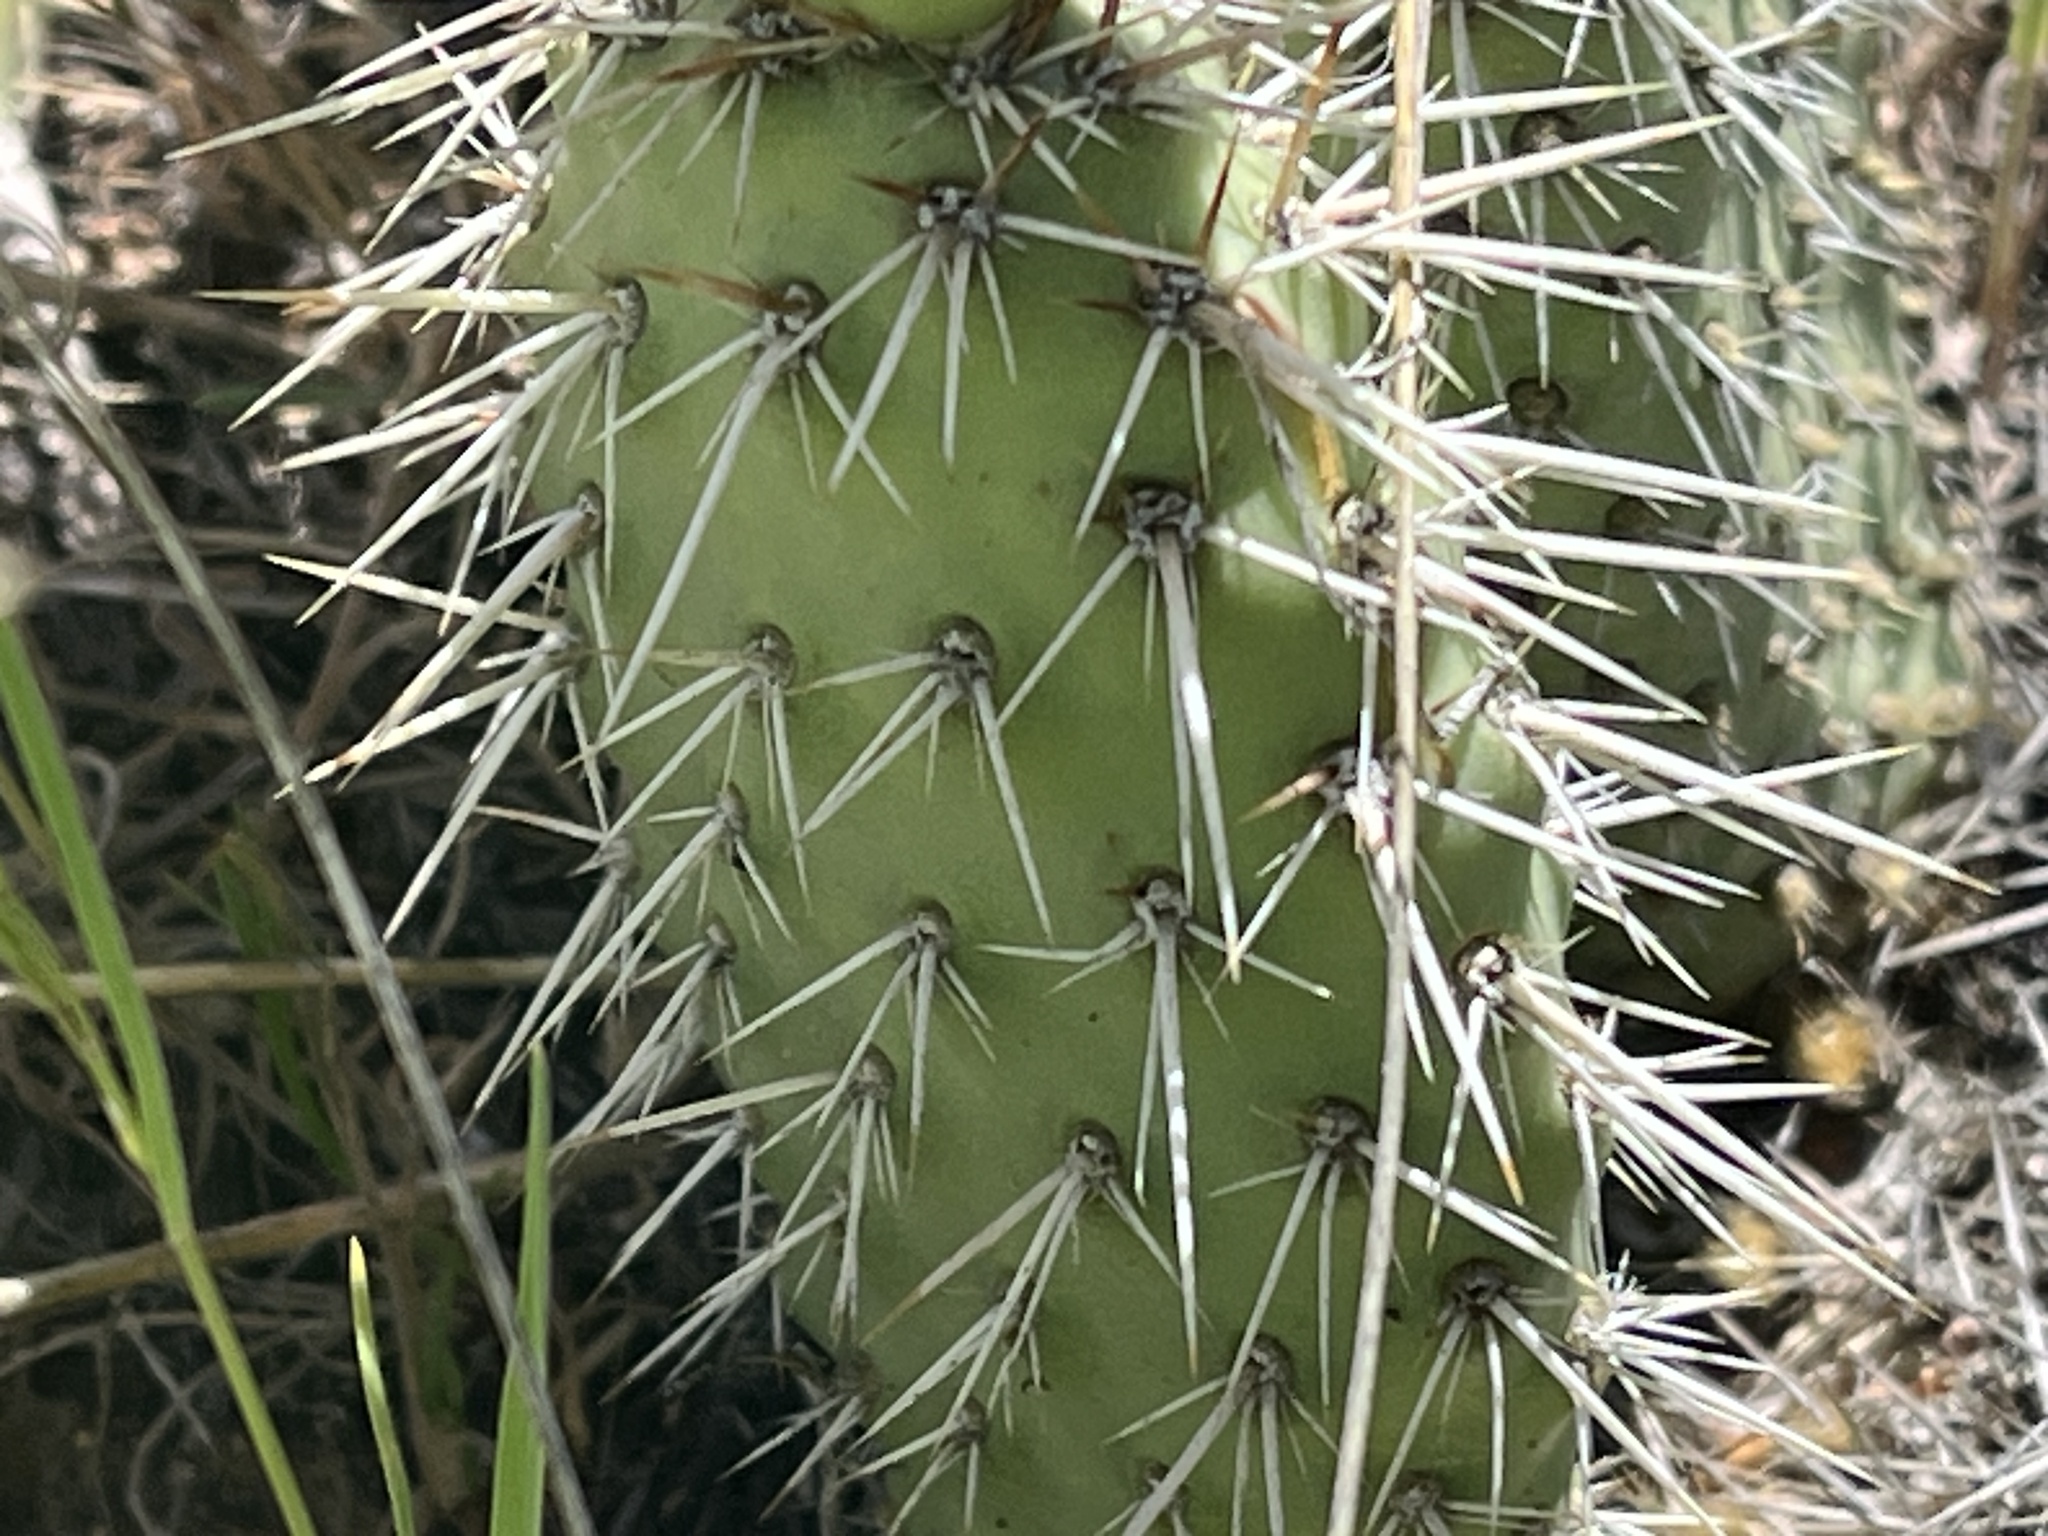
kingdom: Plantae
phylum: Tracheophyta
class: Magnoliopsida
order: Caryophyllales
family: Cactaceae
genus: Opuntia
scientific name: Opuntia polyacantha
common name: Plains prickly-pear
